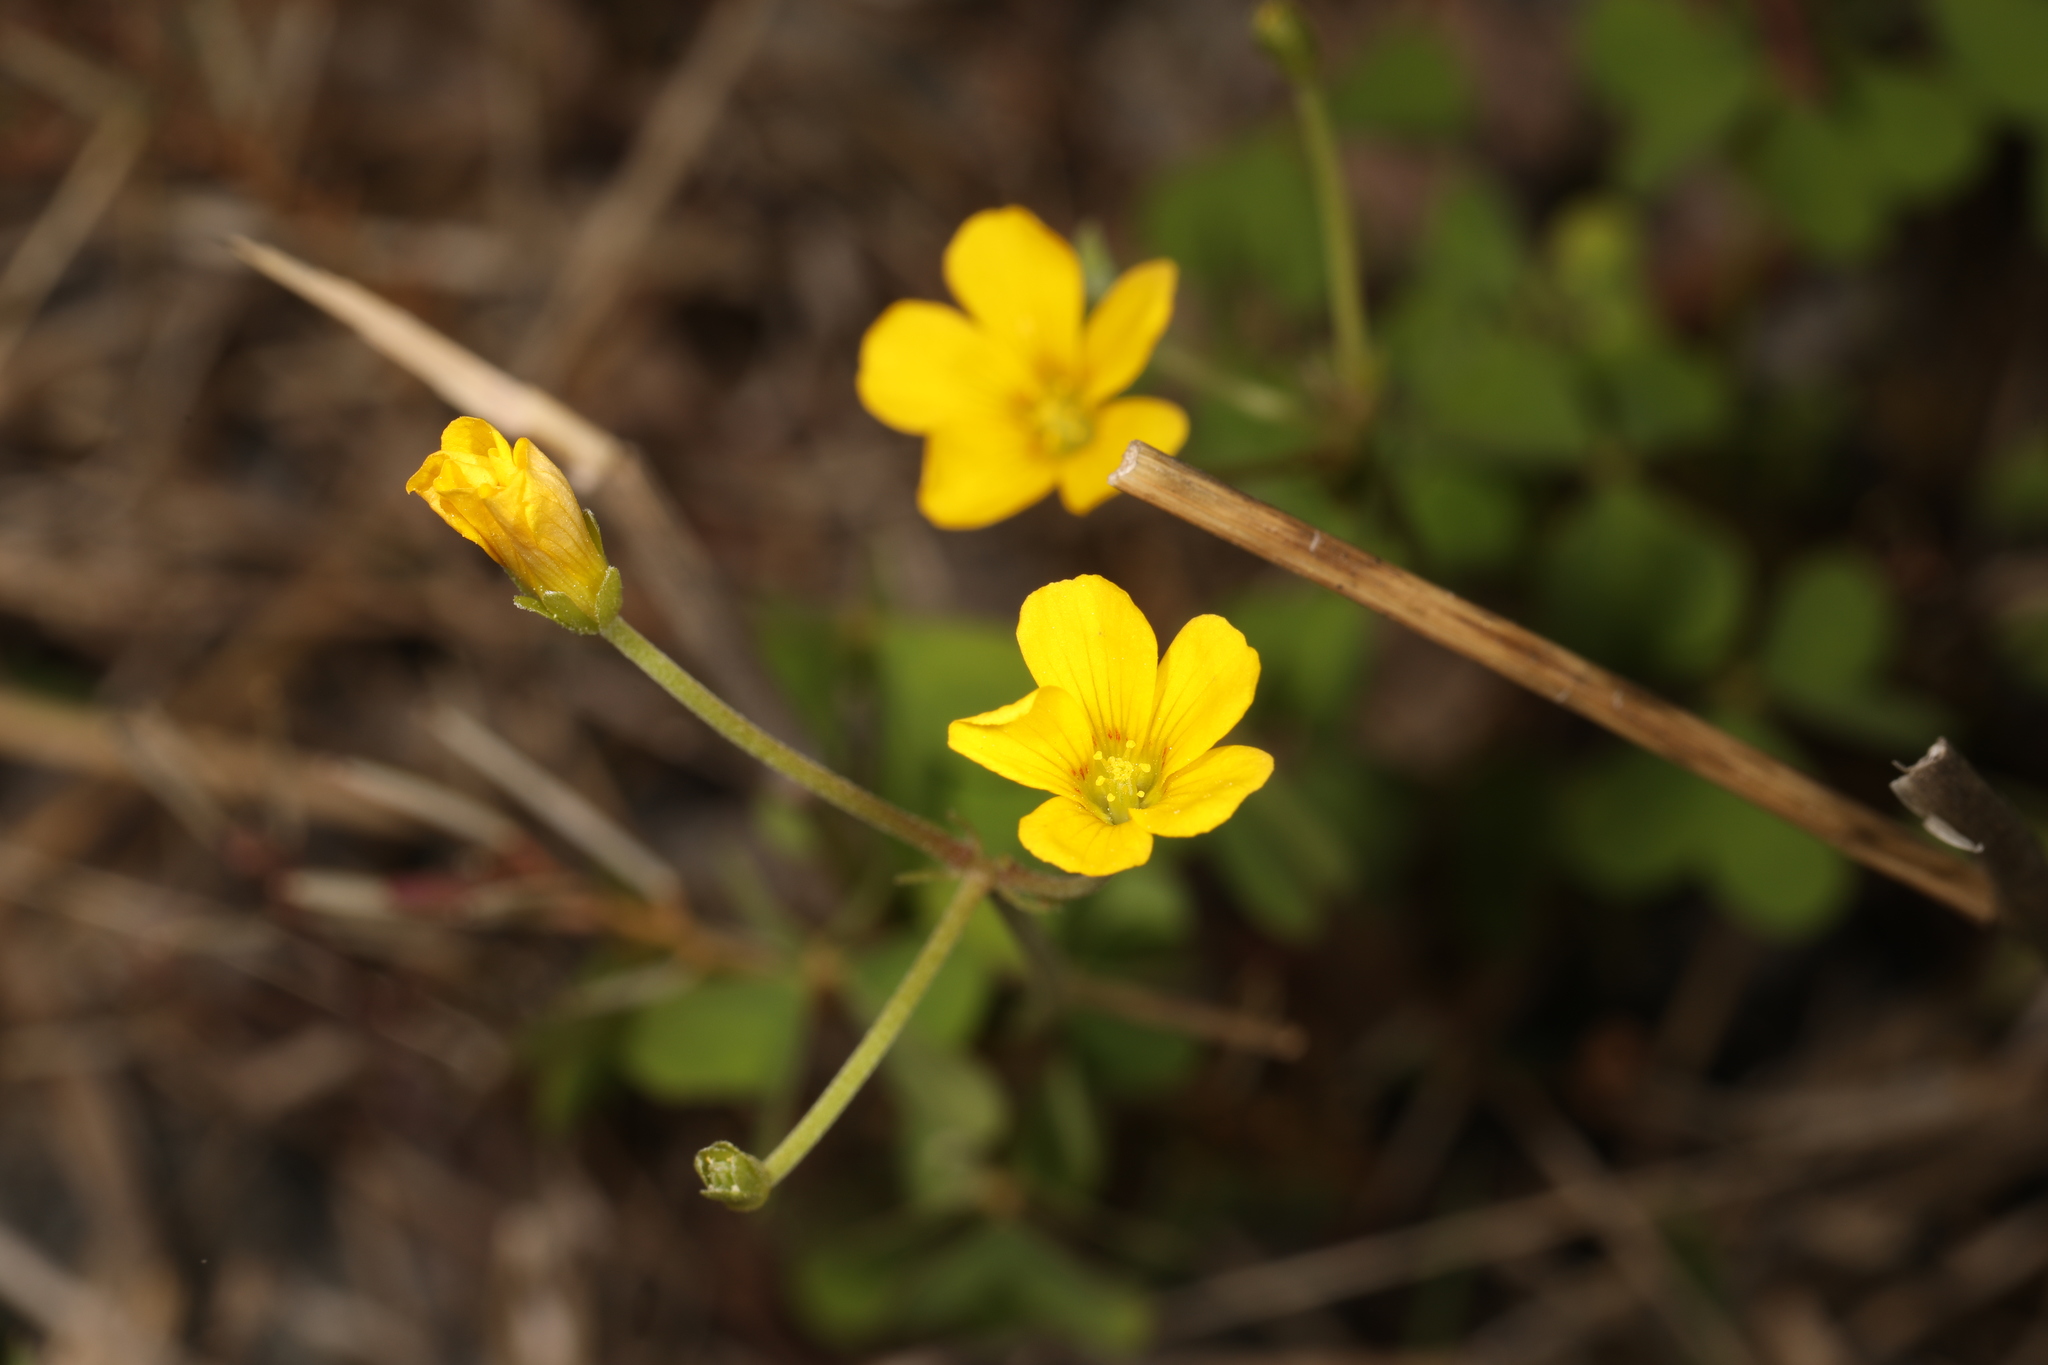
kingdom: Plantae
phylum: Tracheophyta
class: Magnoliopsida
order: Oxalidales
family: Oxalidaceae
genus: Oxalis
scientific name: Oxalis dillenii
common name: Sussex yellow-sorrel
